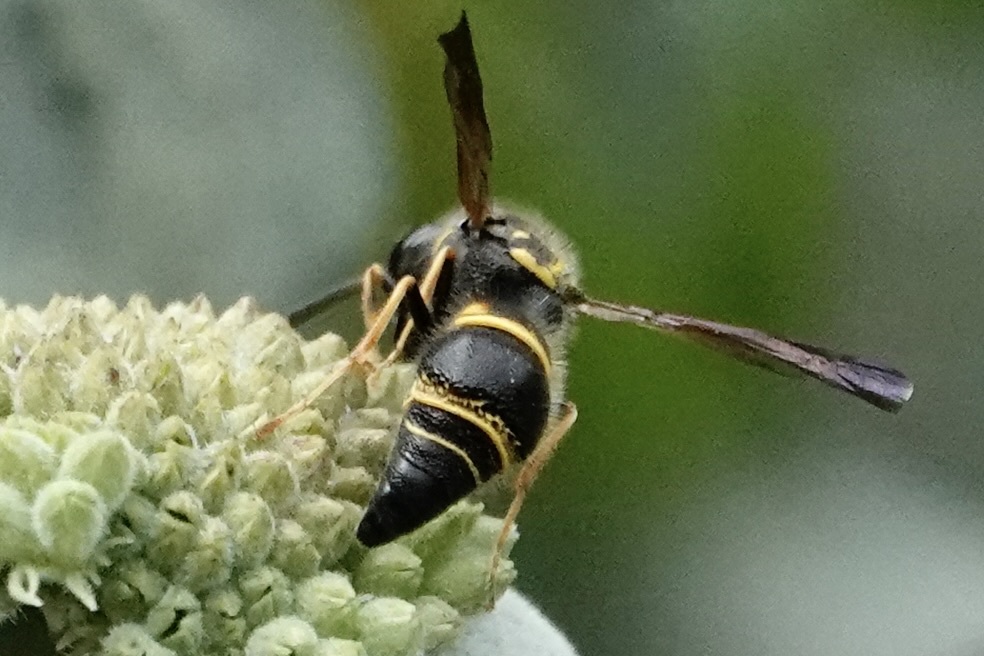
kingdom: Animalia
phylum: Arthropoda
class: Insecta
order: Hymenoptera
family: Vespidae
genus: Ancistrocerus
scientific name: Ancistrocerus campestris
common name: Smiling mason wasp
